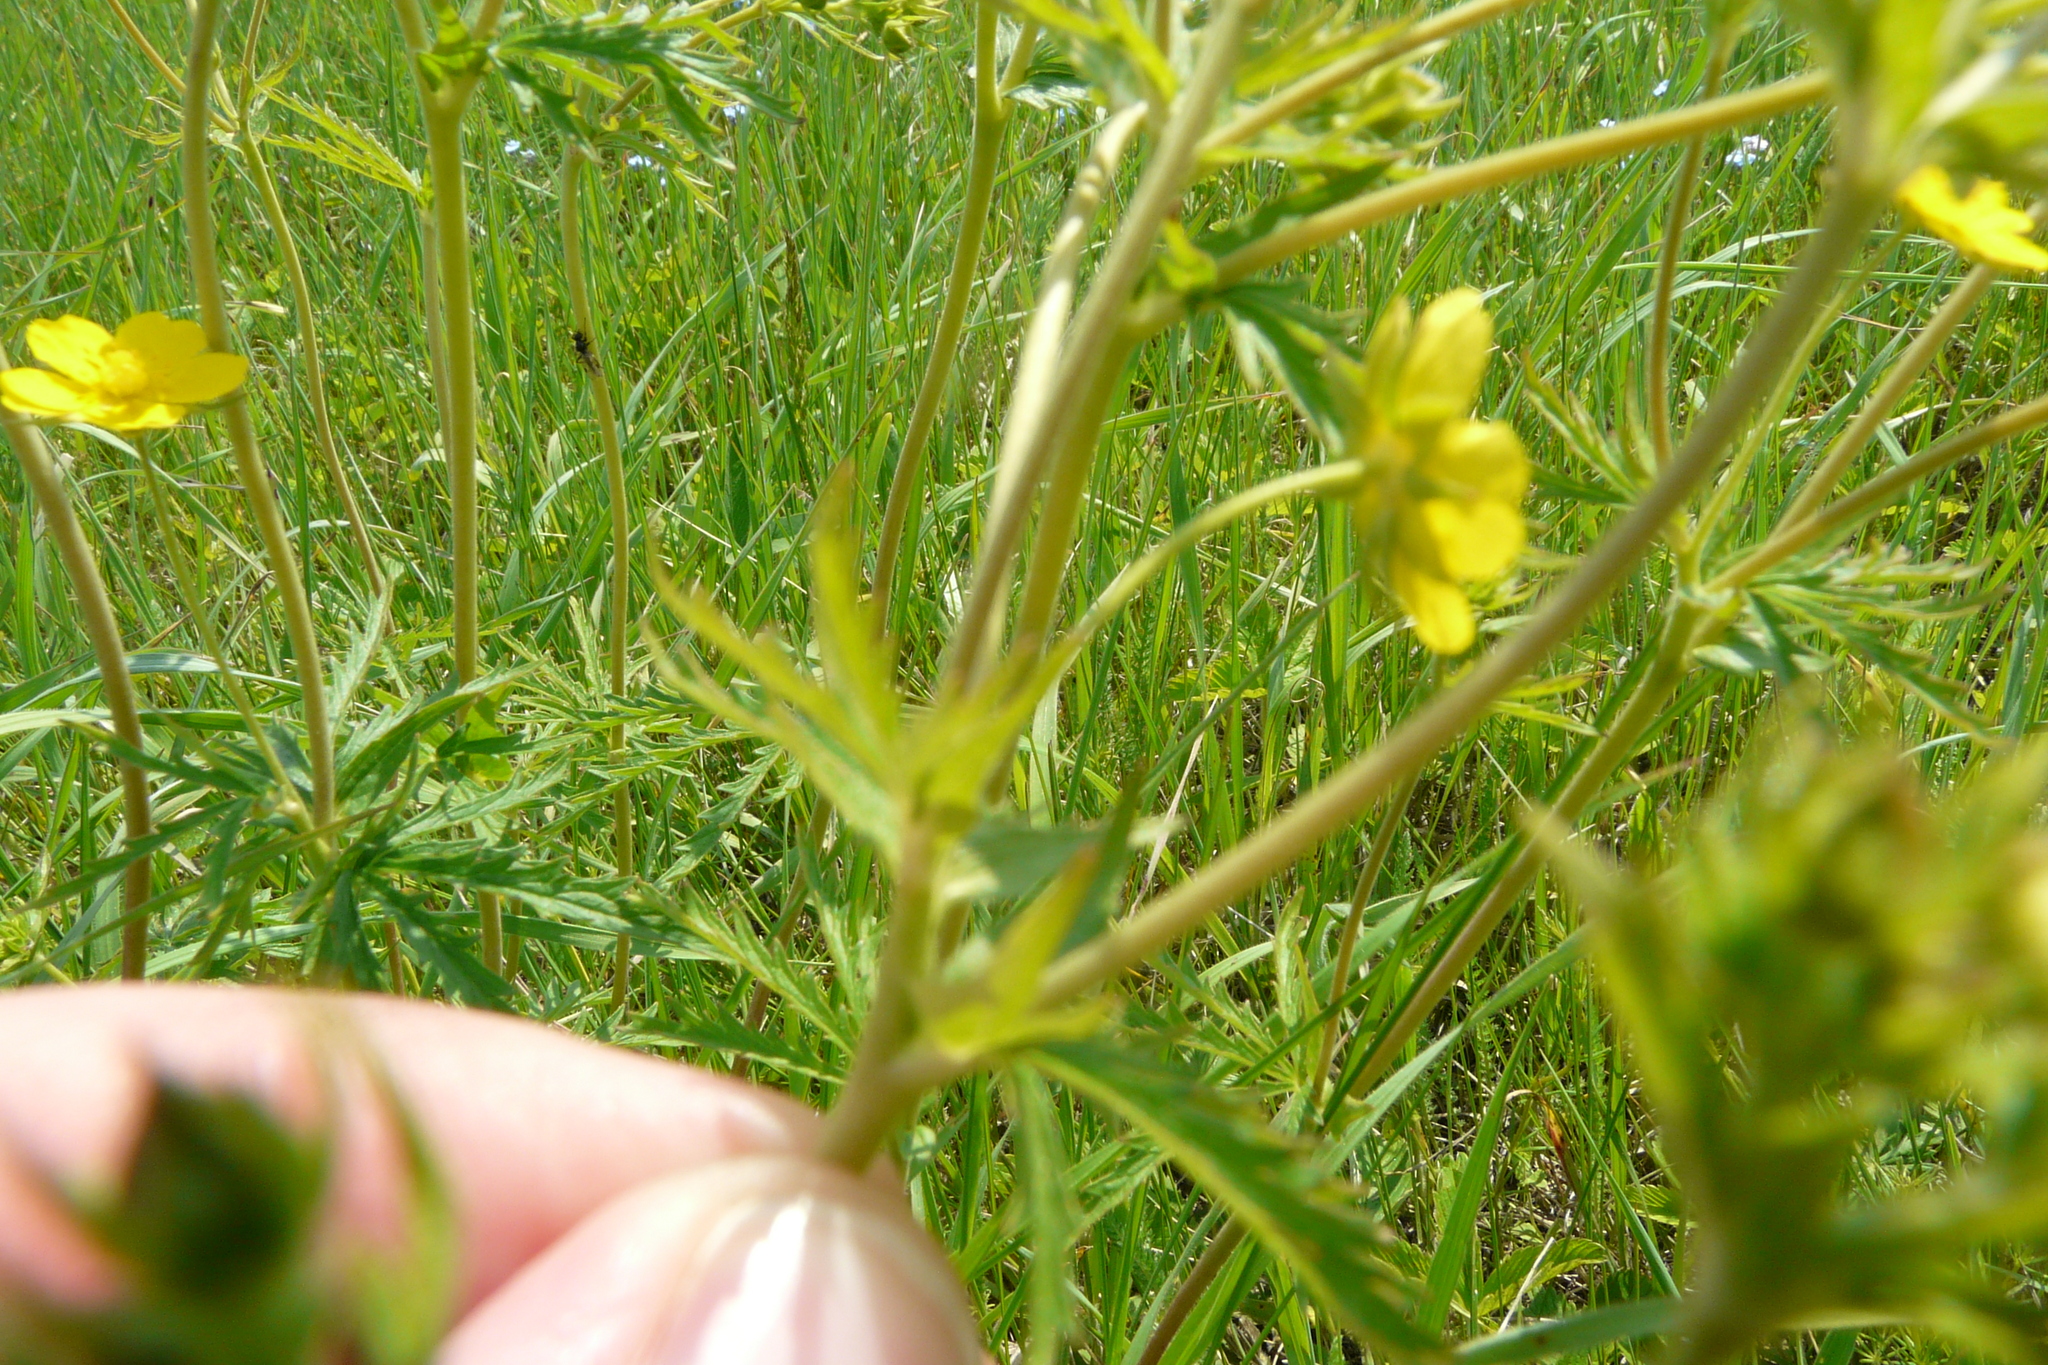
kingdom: Plantae
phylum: Tracheophyta
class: Magnoliopsida
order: Rosales
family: Rosaceae
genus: Potentilla
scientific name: Potentilla longipes
